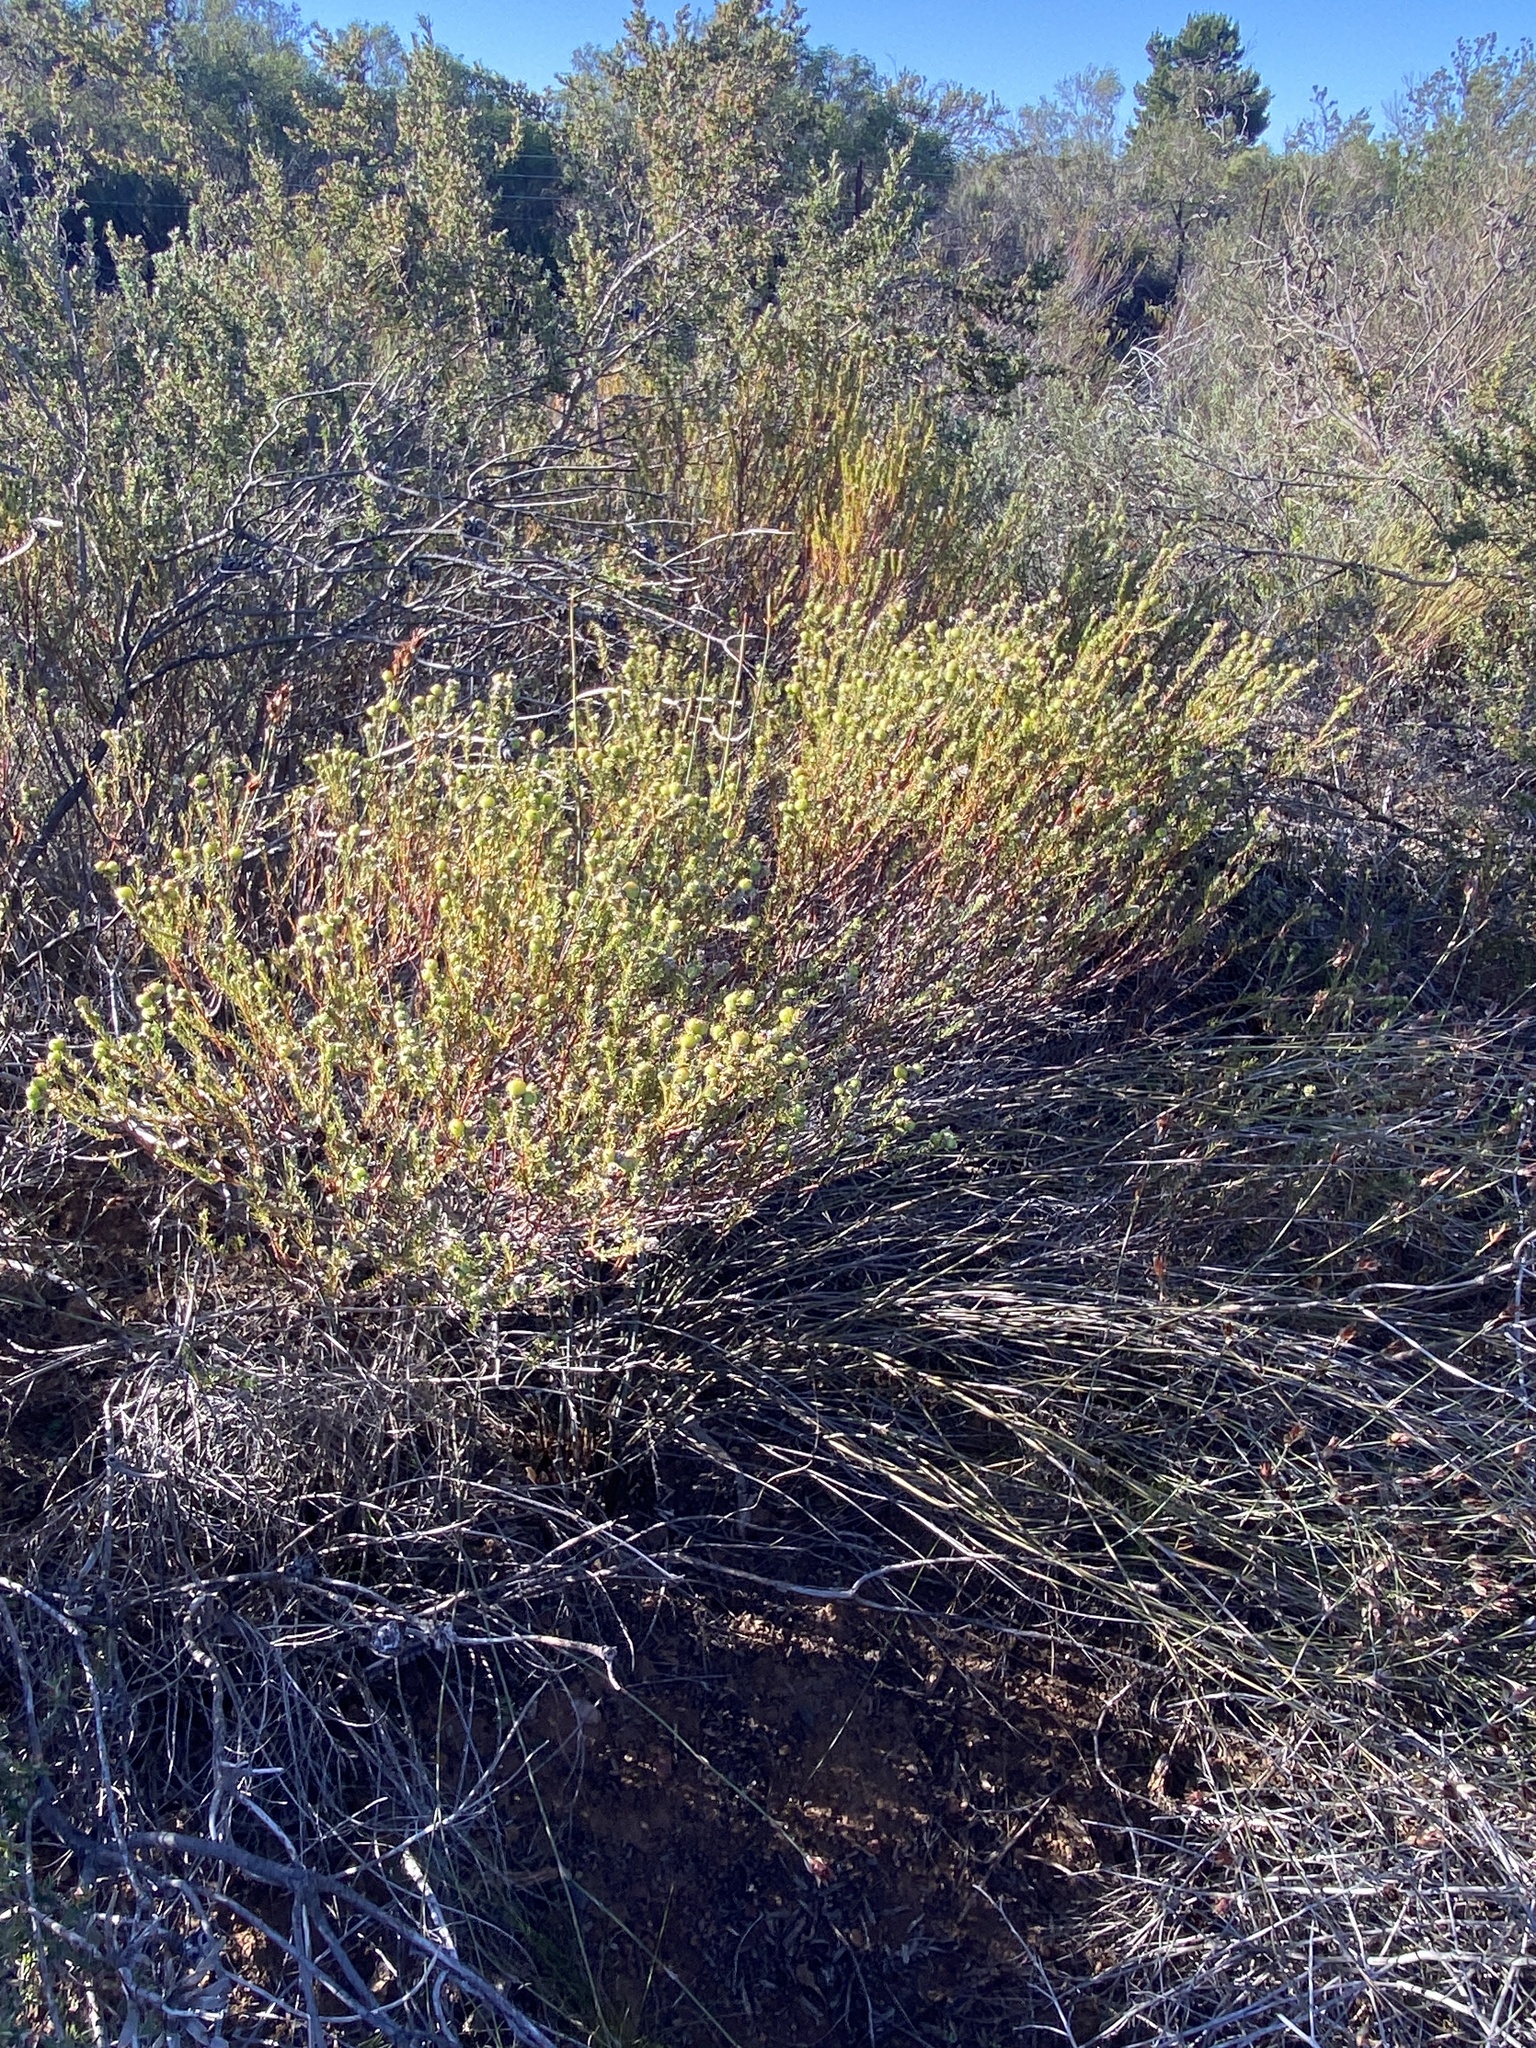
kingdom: Plantae
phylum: Tracheophyta
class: Magnoliopsida
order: Rosales
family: Rhamnaceae
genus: Phylica
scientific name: Phylica agathosmoides
